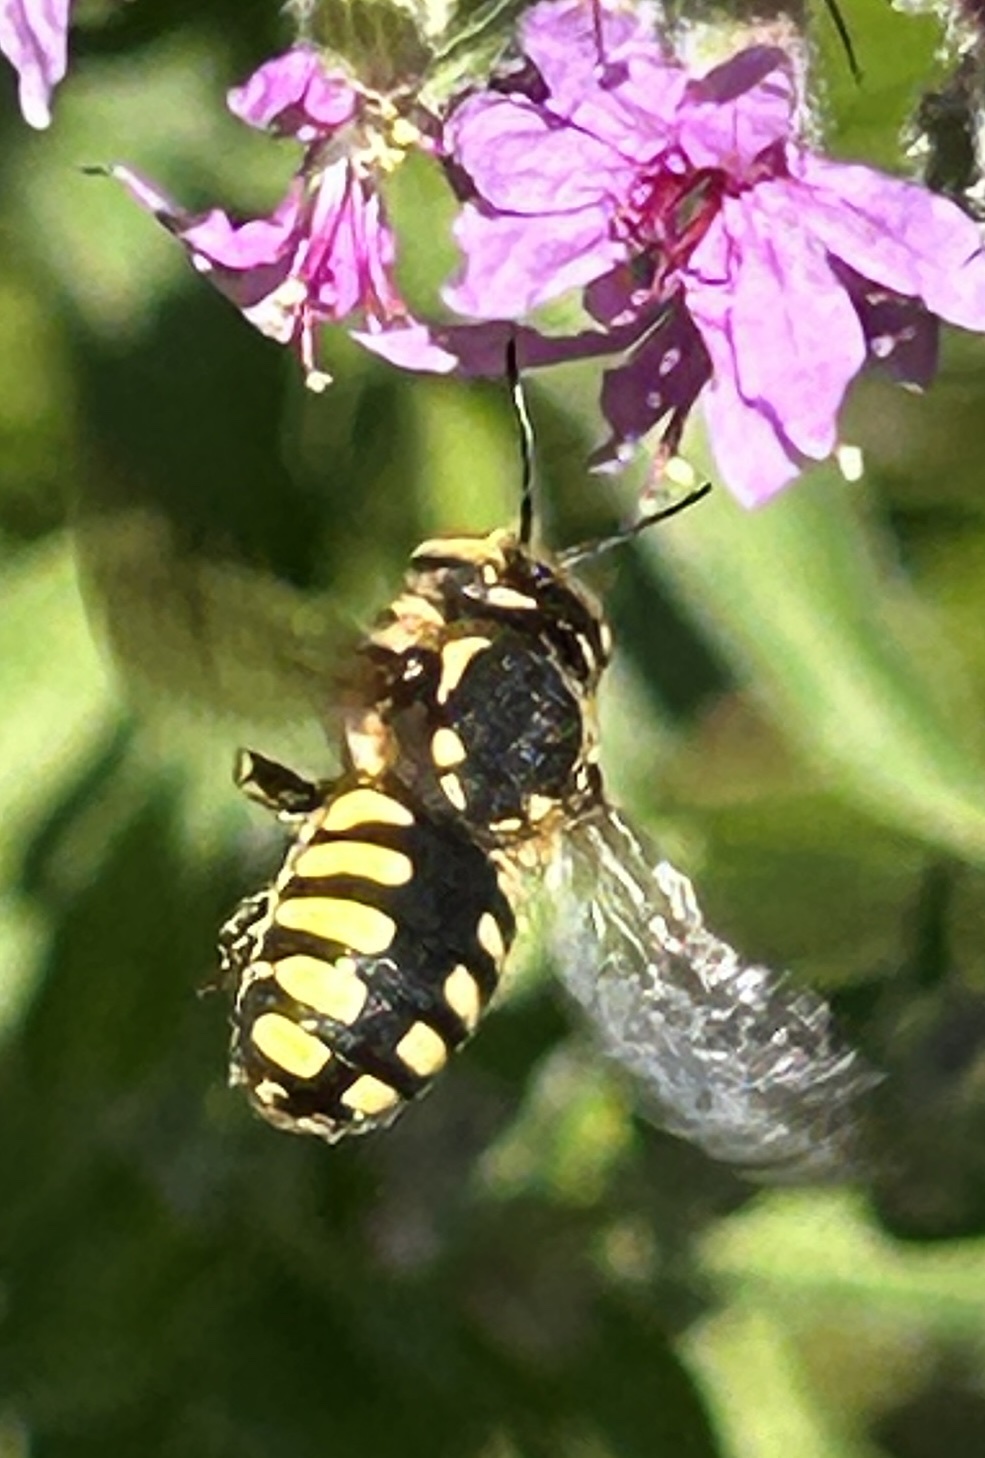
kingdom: Animalia
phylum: Arthropoda
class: Insecta
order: Hymenoptera
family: Megachilidae
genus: Anthidium
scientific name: Anthidium florentinum
